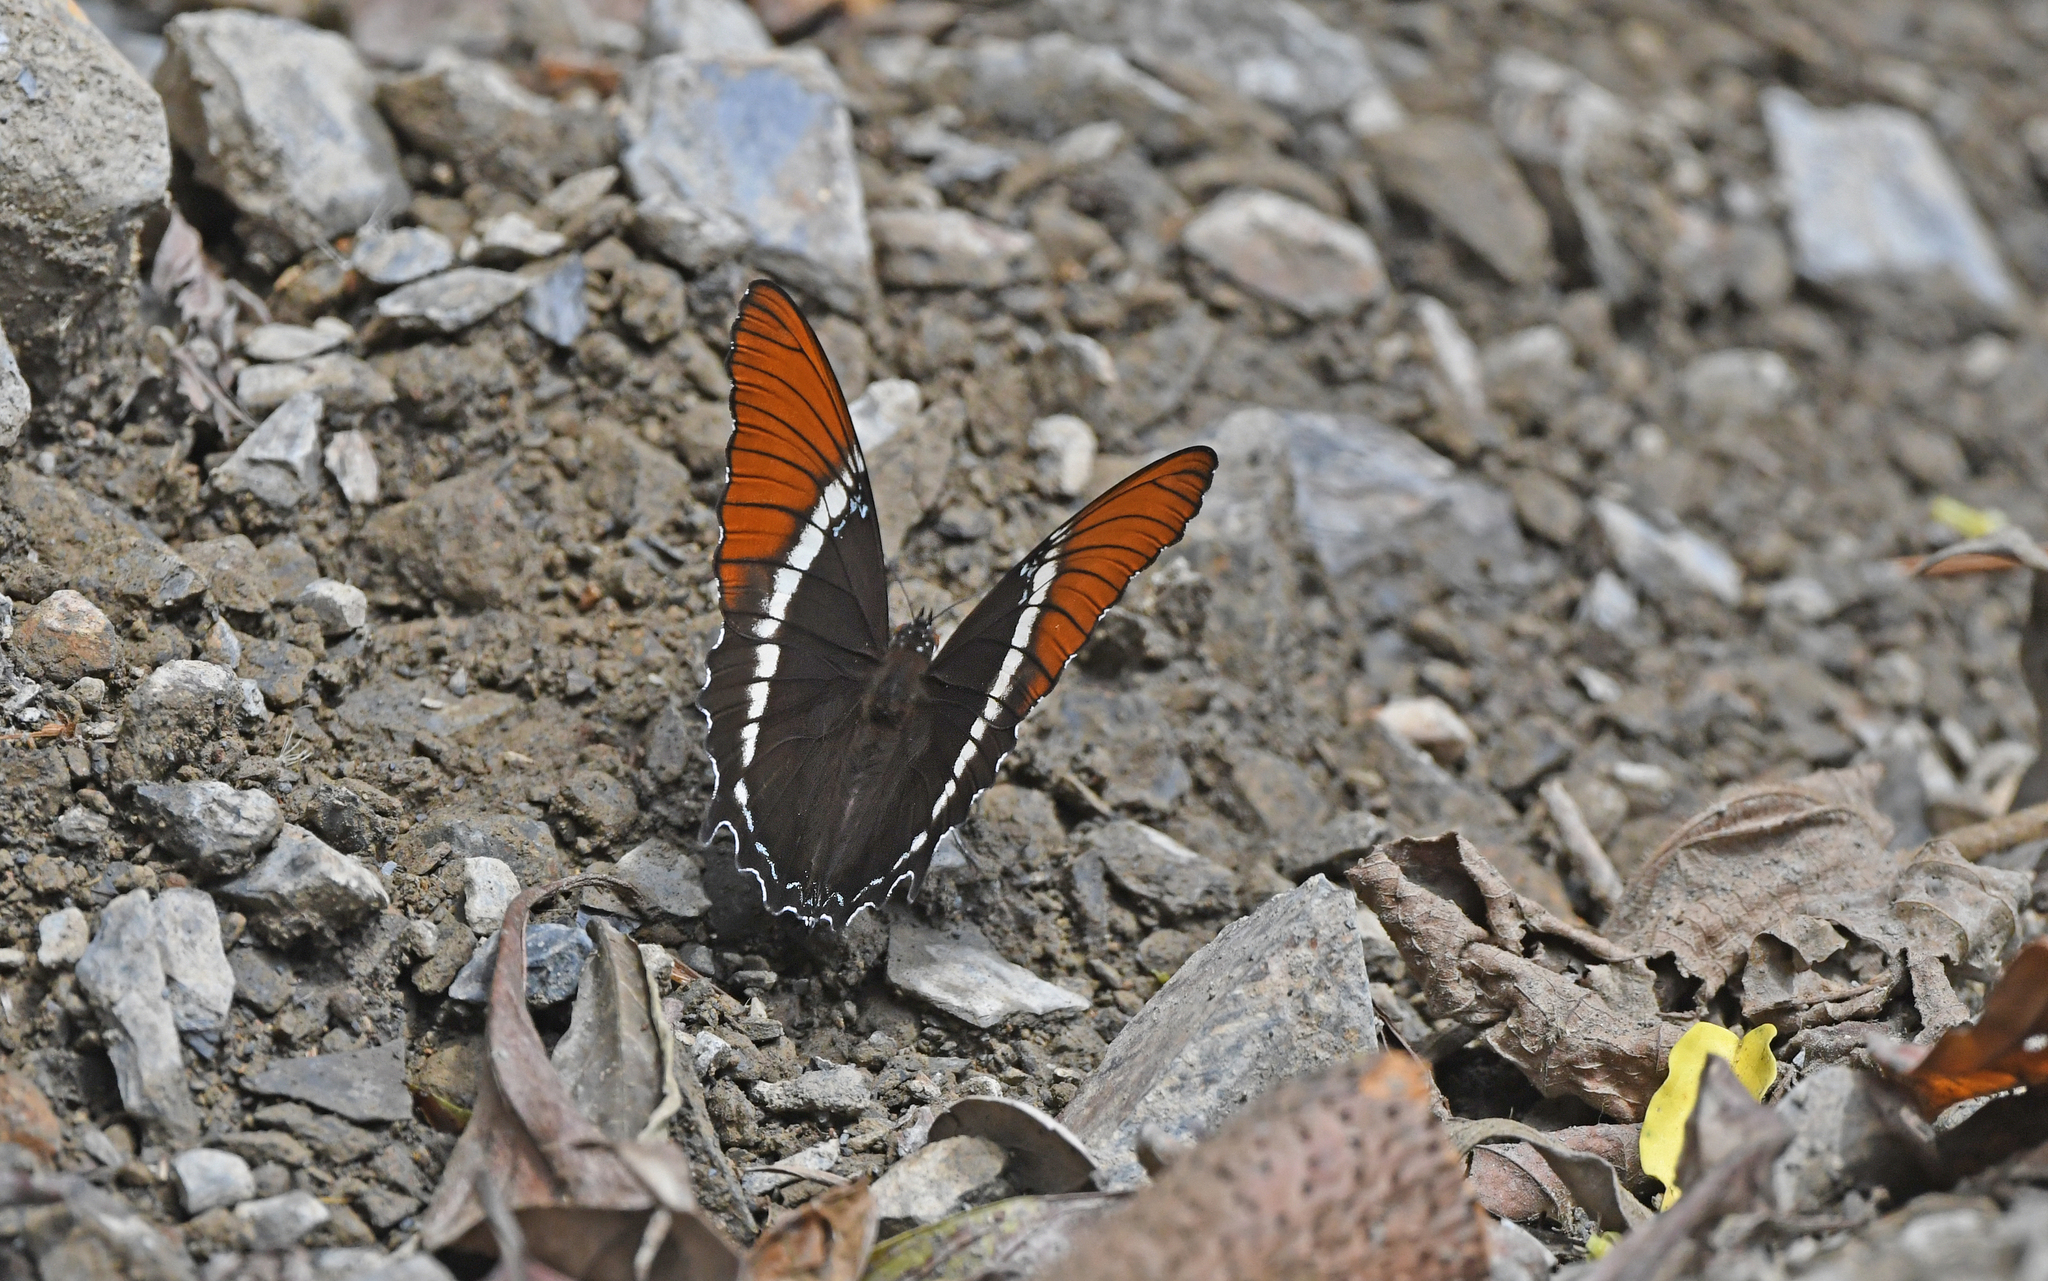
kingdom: Animalia
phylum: Arthropoda
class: Insecta
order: Lepidoptera
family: Nymphalidae
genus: Siproeta
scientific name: Siproeta epaphus
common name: Rusty-tipped page
